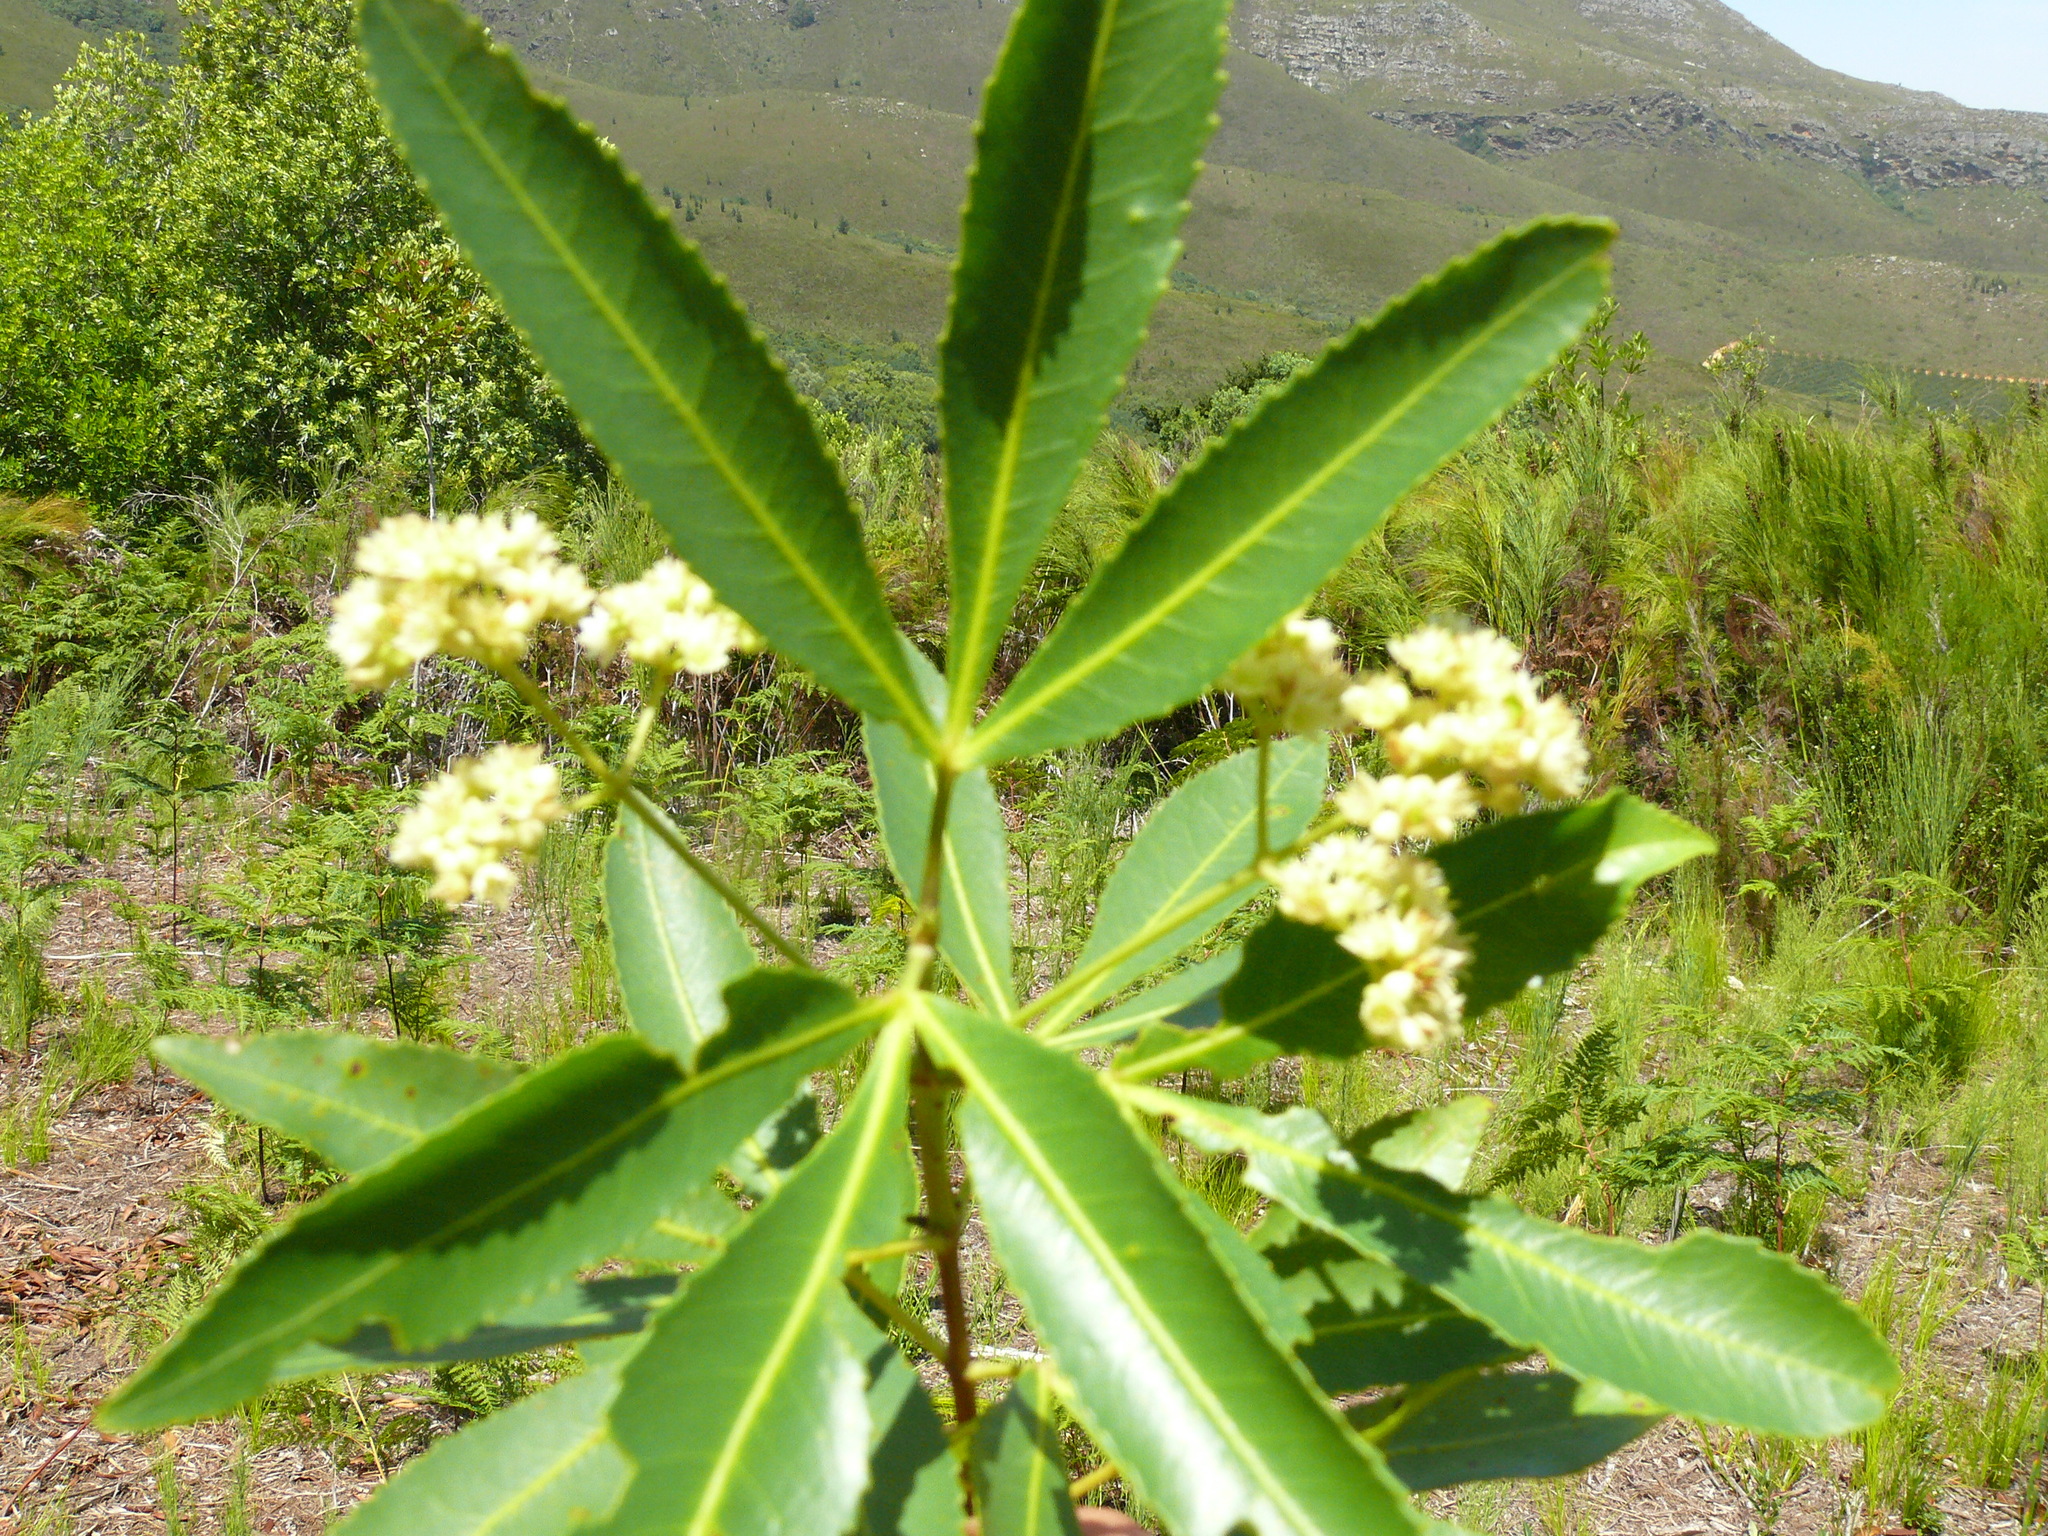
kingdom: Plantae
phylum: Tracheophyta
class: Magnoliopsida
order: Oxalidales
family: Cunoniaceae
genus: Platylophus
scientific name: Platylophus trifoliatus
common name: White alder
